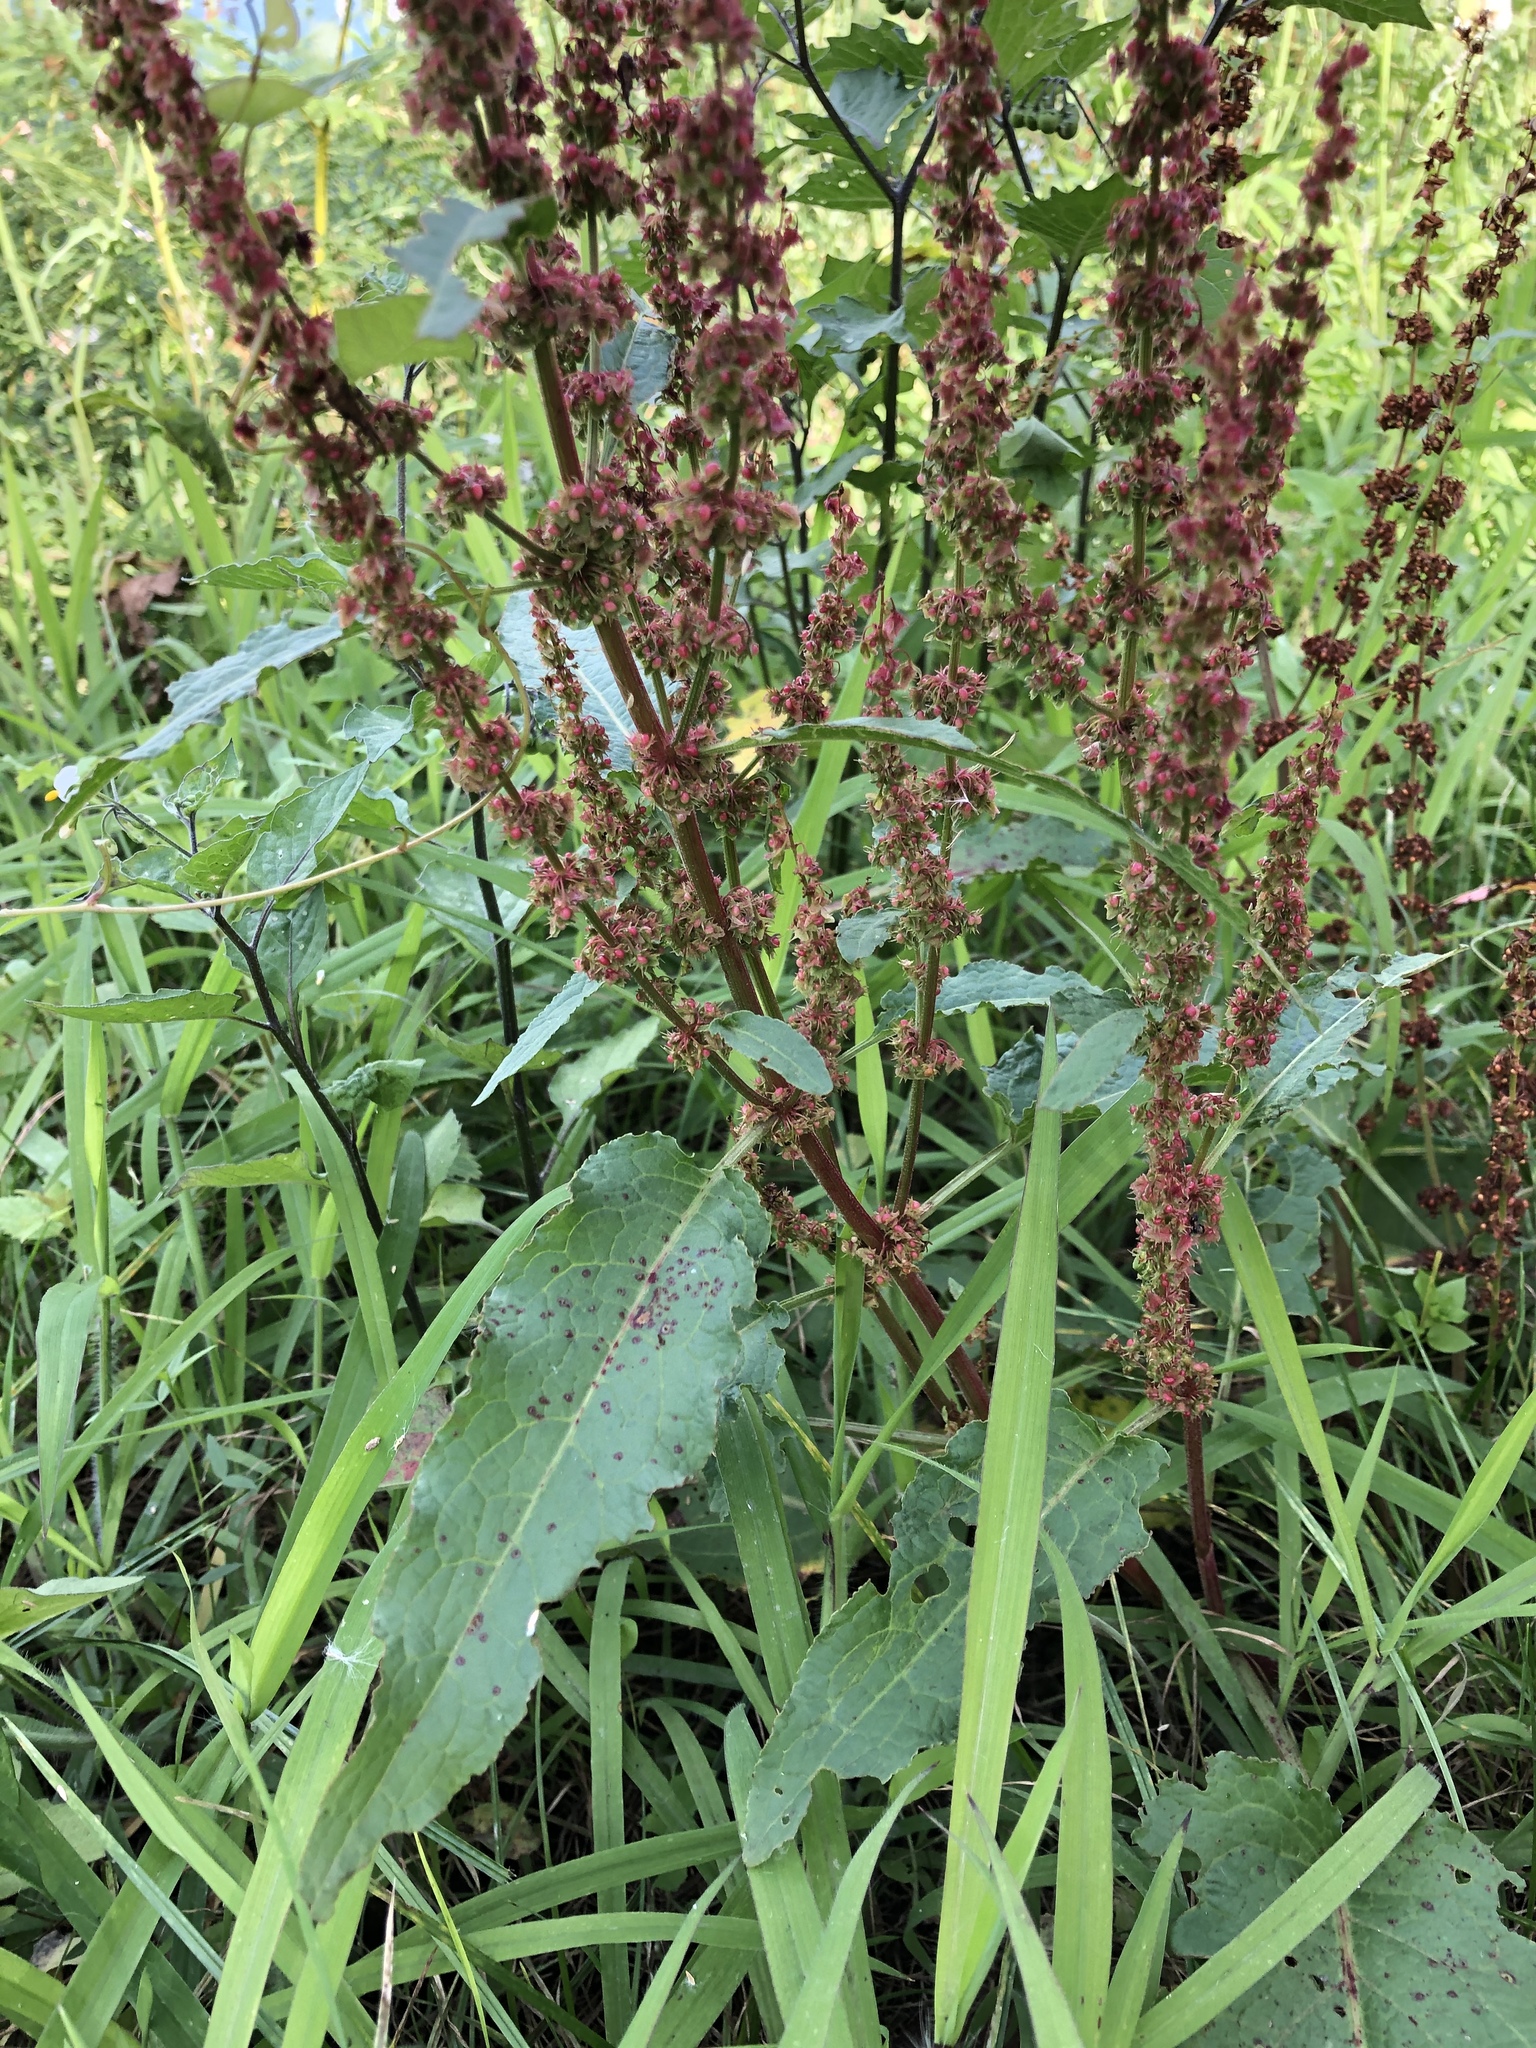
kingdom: Plantae
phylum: Tracheophyta
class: Magnoliopsida
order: Caryophyllales
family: Polygonaceae
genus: Rumex
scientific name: Rumex crispus
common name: Curled dock
